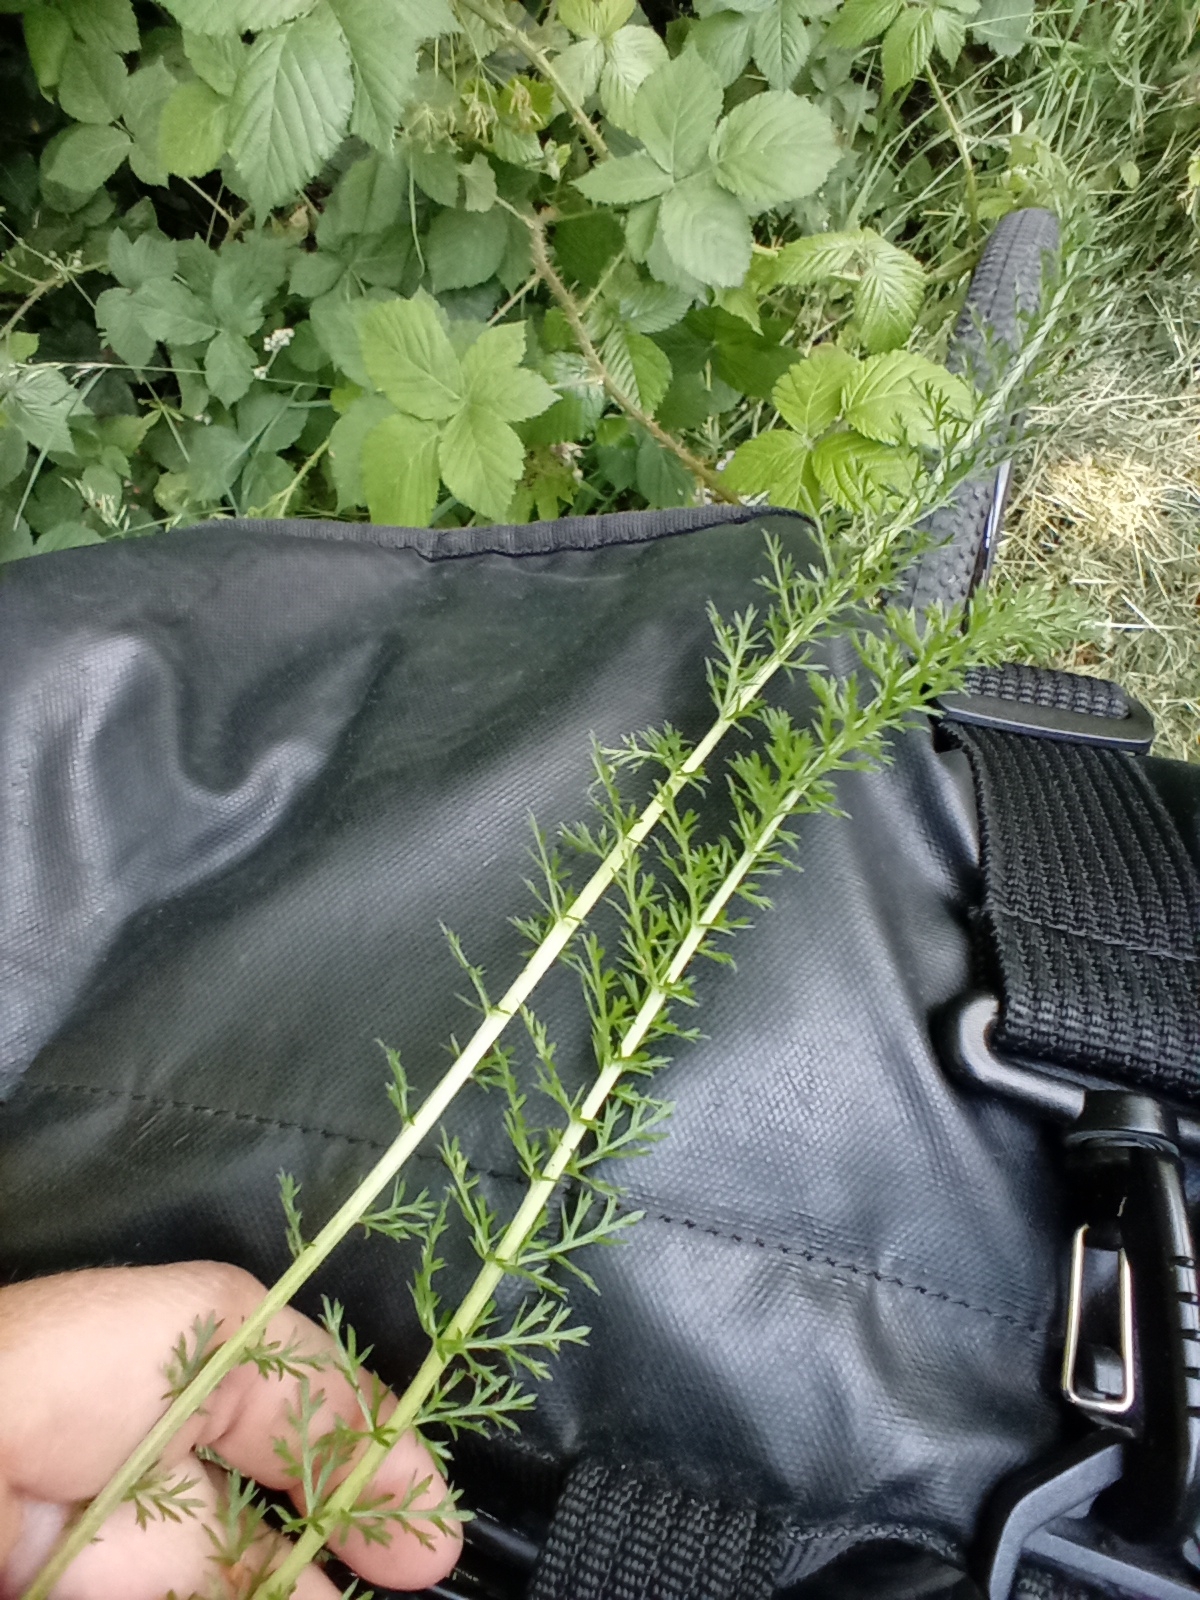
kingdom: Plantae
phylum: Tracheophyta
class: Magnoliopsida
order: Asterales
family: Asteraceae
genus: Achillea
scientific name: Achillea millefolium
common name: Yarrow
